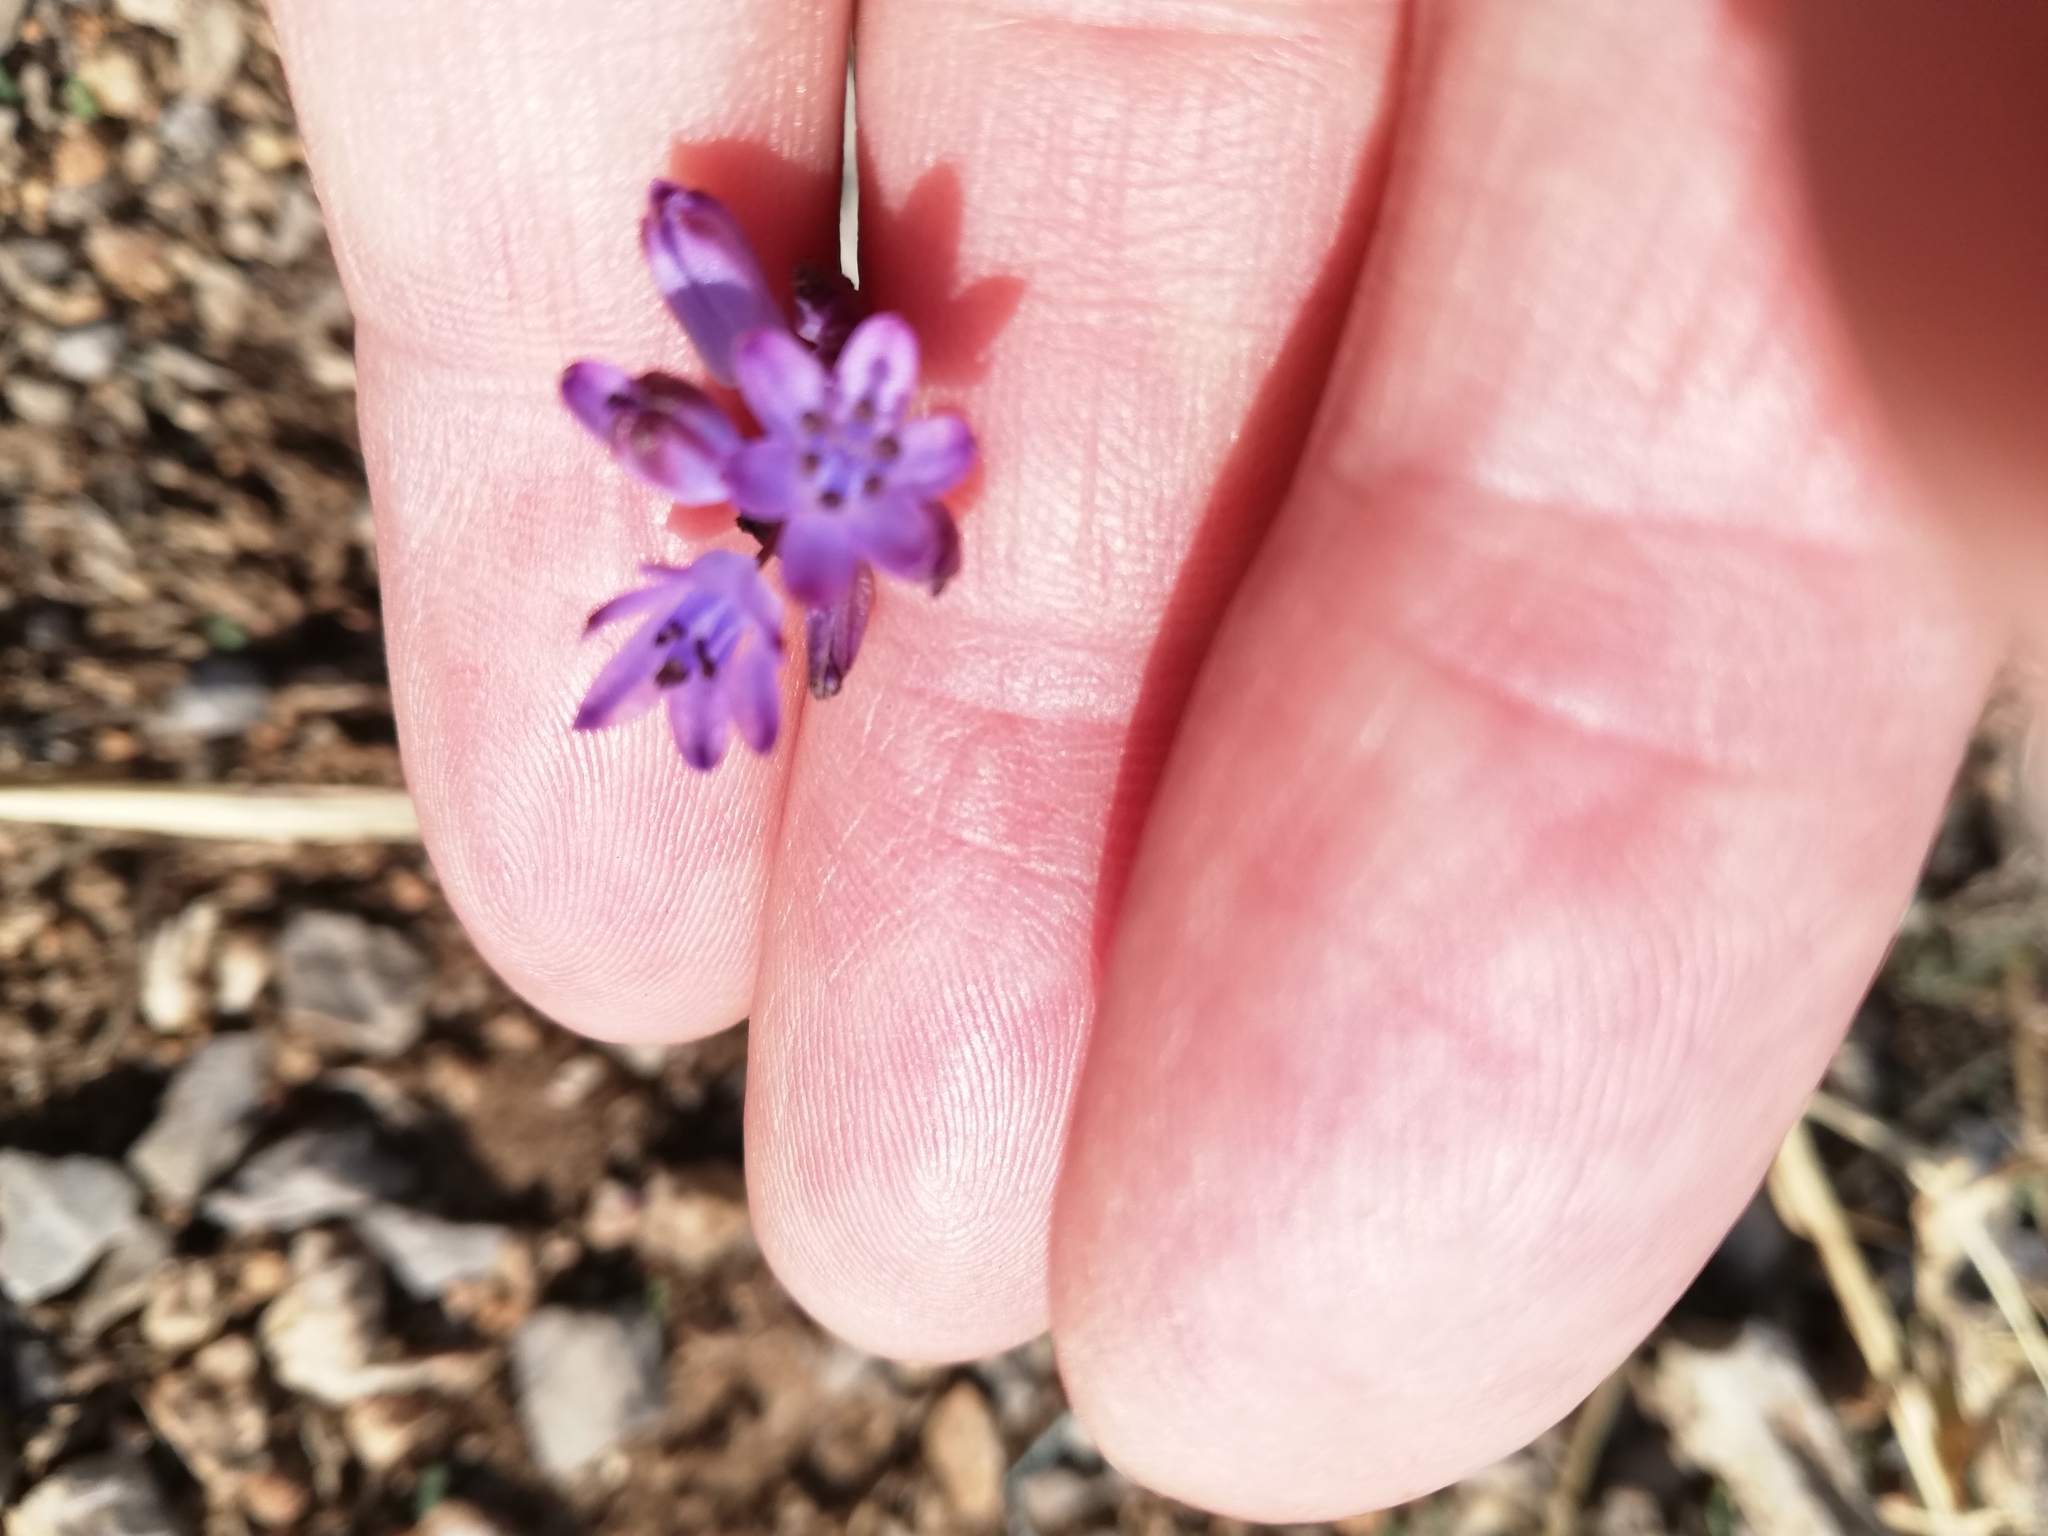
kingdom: Plantae
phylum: Tracheophyta
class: Liliopsida
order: Asparagales
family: Asparagaceae
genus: Prospero
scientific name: Prospero autumnale
